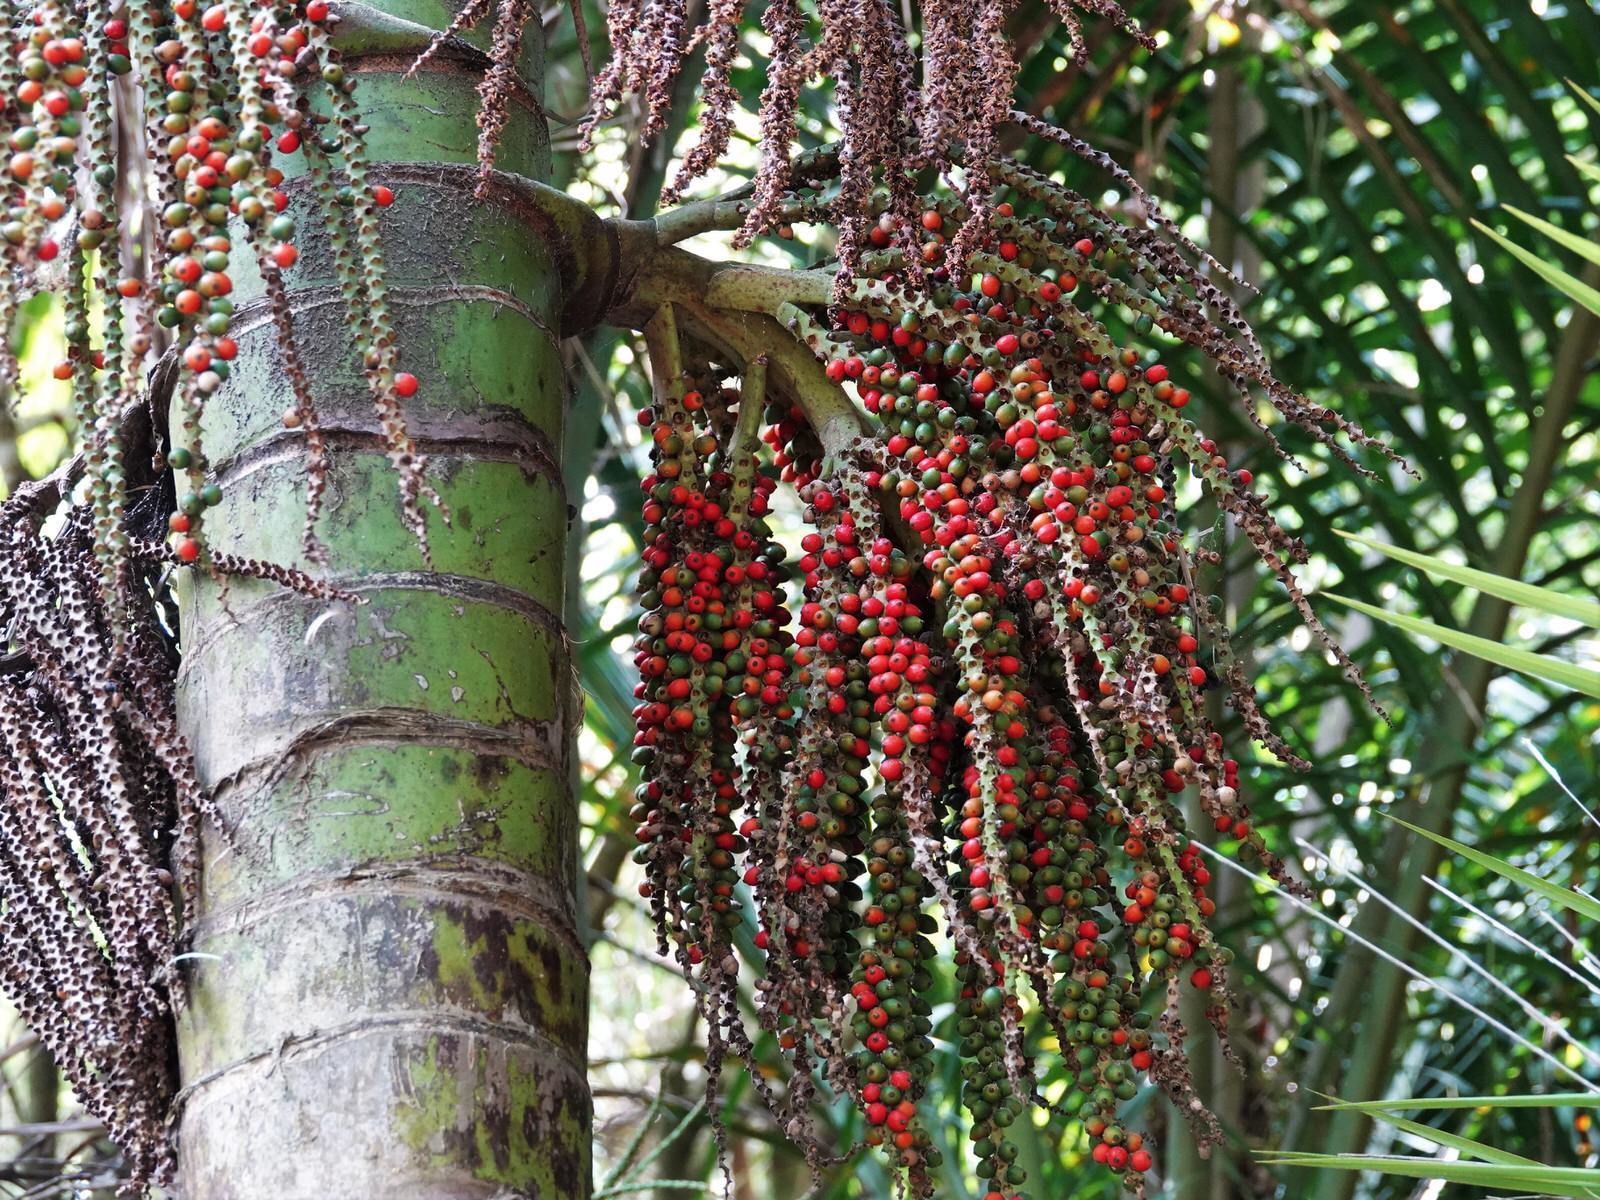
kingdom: Plantae
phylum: Tracheophyta
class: Liliopsida
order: Arecales
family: Arecaceae
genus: Rhopalostylis
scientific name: Rhopalostylis sapida
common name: Feather-duster palm
